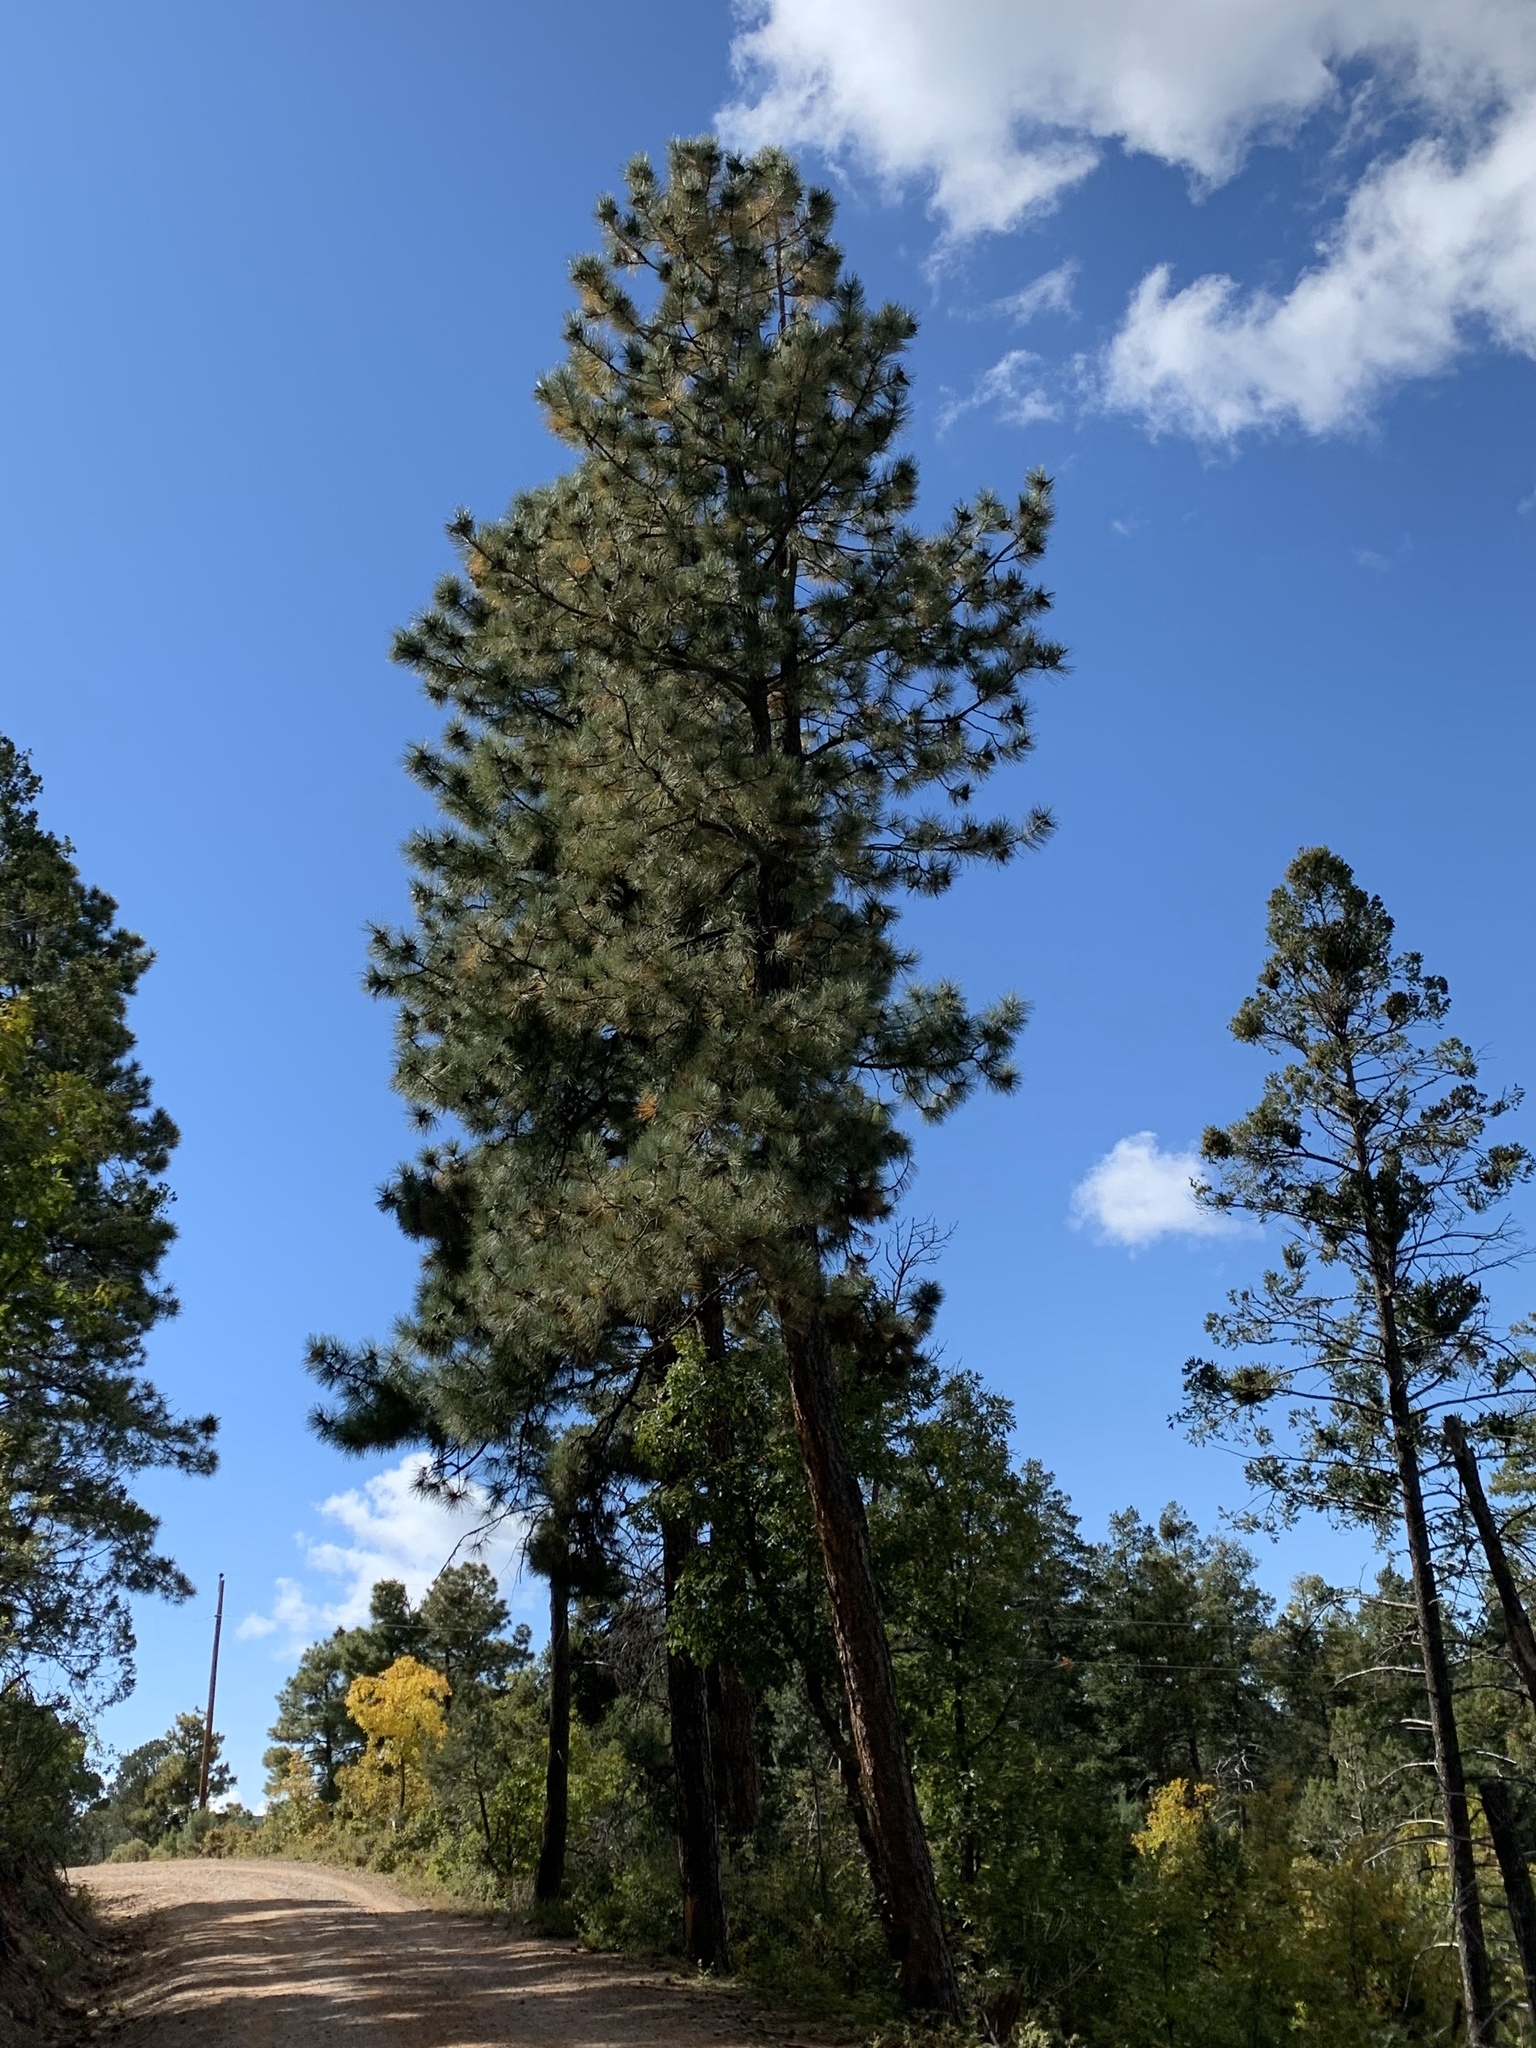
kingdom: Plantae
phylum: Tracheophyta
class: Pinopsida
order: Pinales
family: Pinaceae
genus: Pinus
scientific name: Pinus ponderosa
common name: Western yellow-pine
